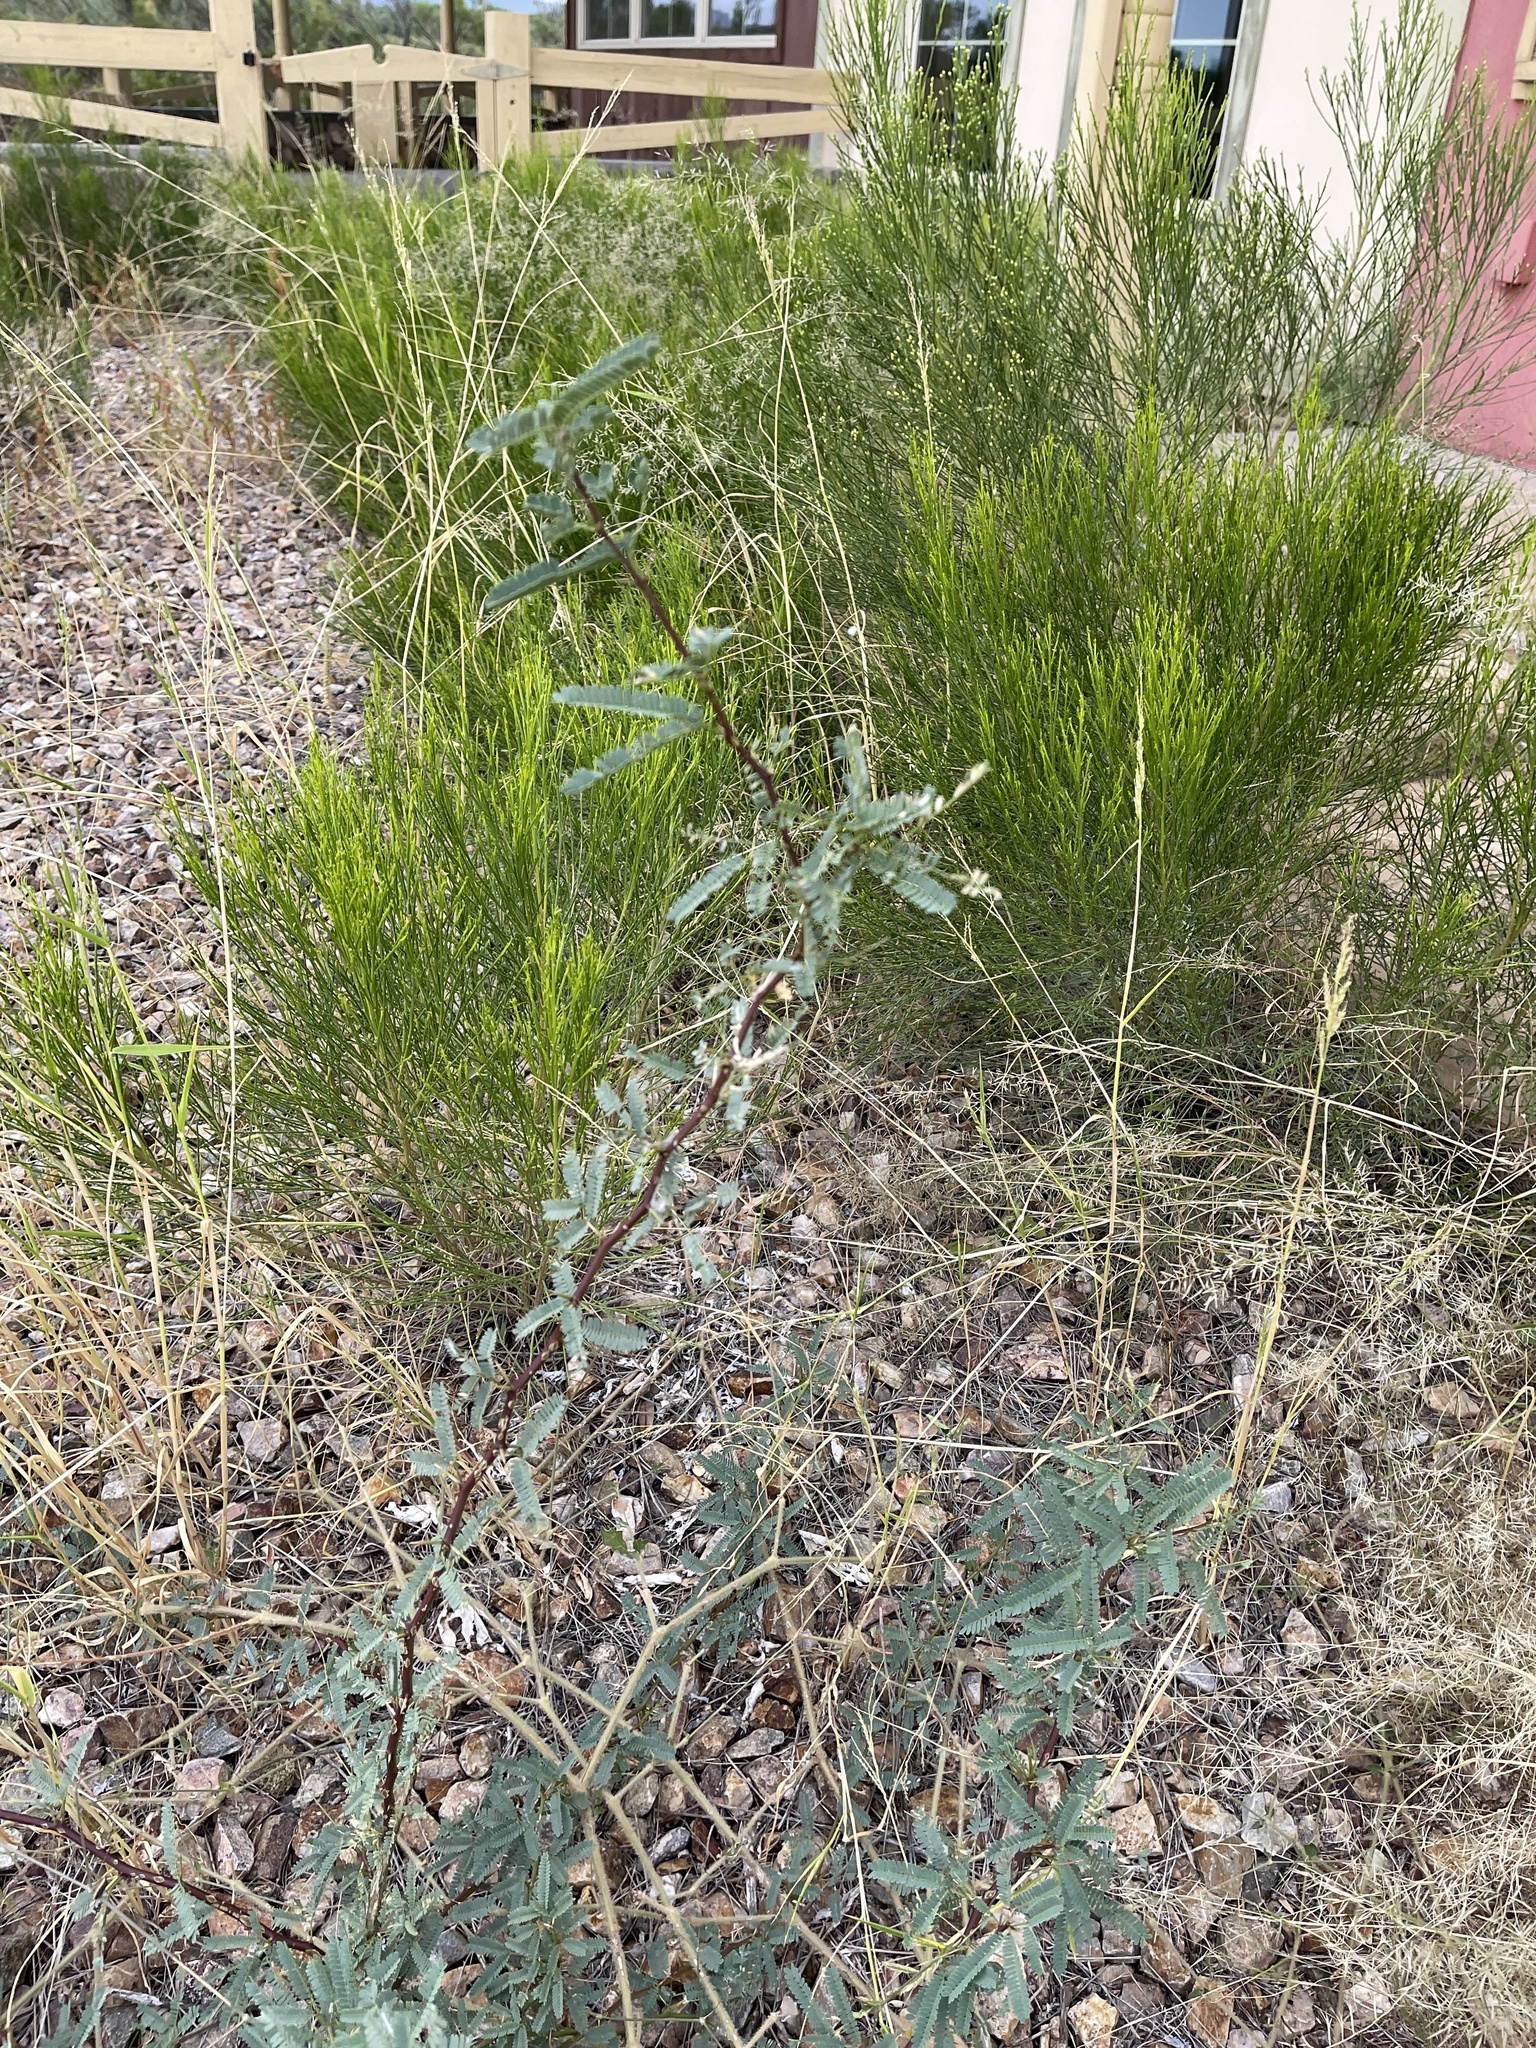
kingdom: Plantae
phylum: Tracheophyta
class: Magnoliopsida
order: Fabales
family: Fabaceae
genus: Prosopis
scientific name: Prosopis velutina
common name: Velvet mesquite
